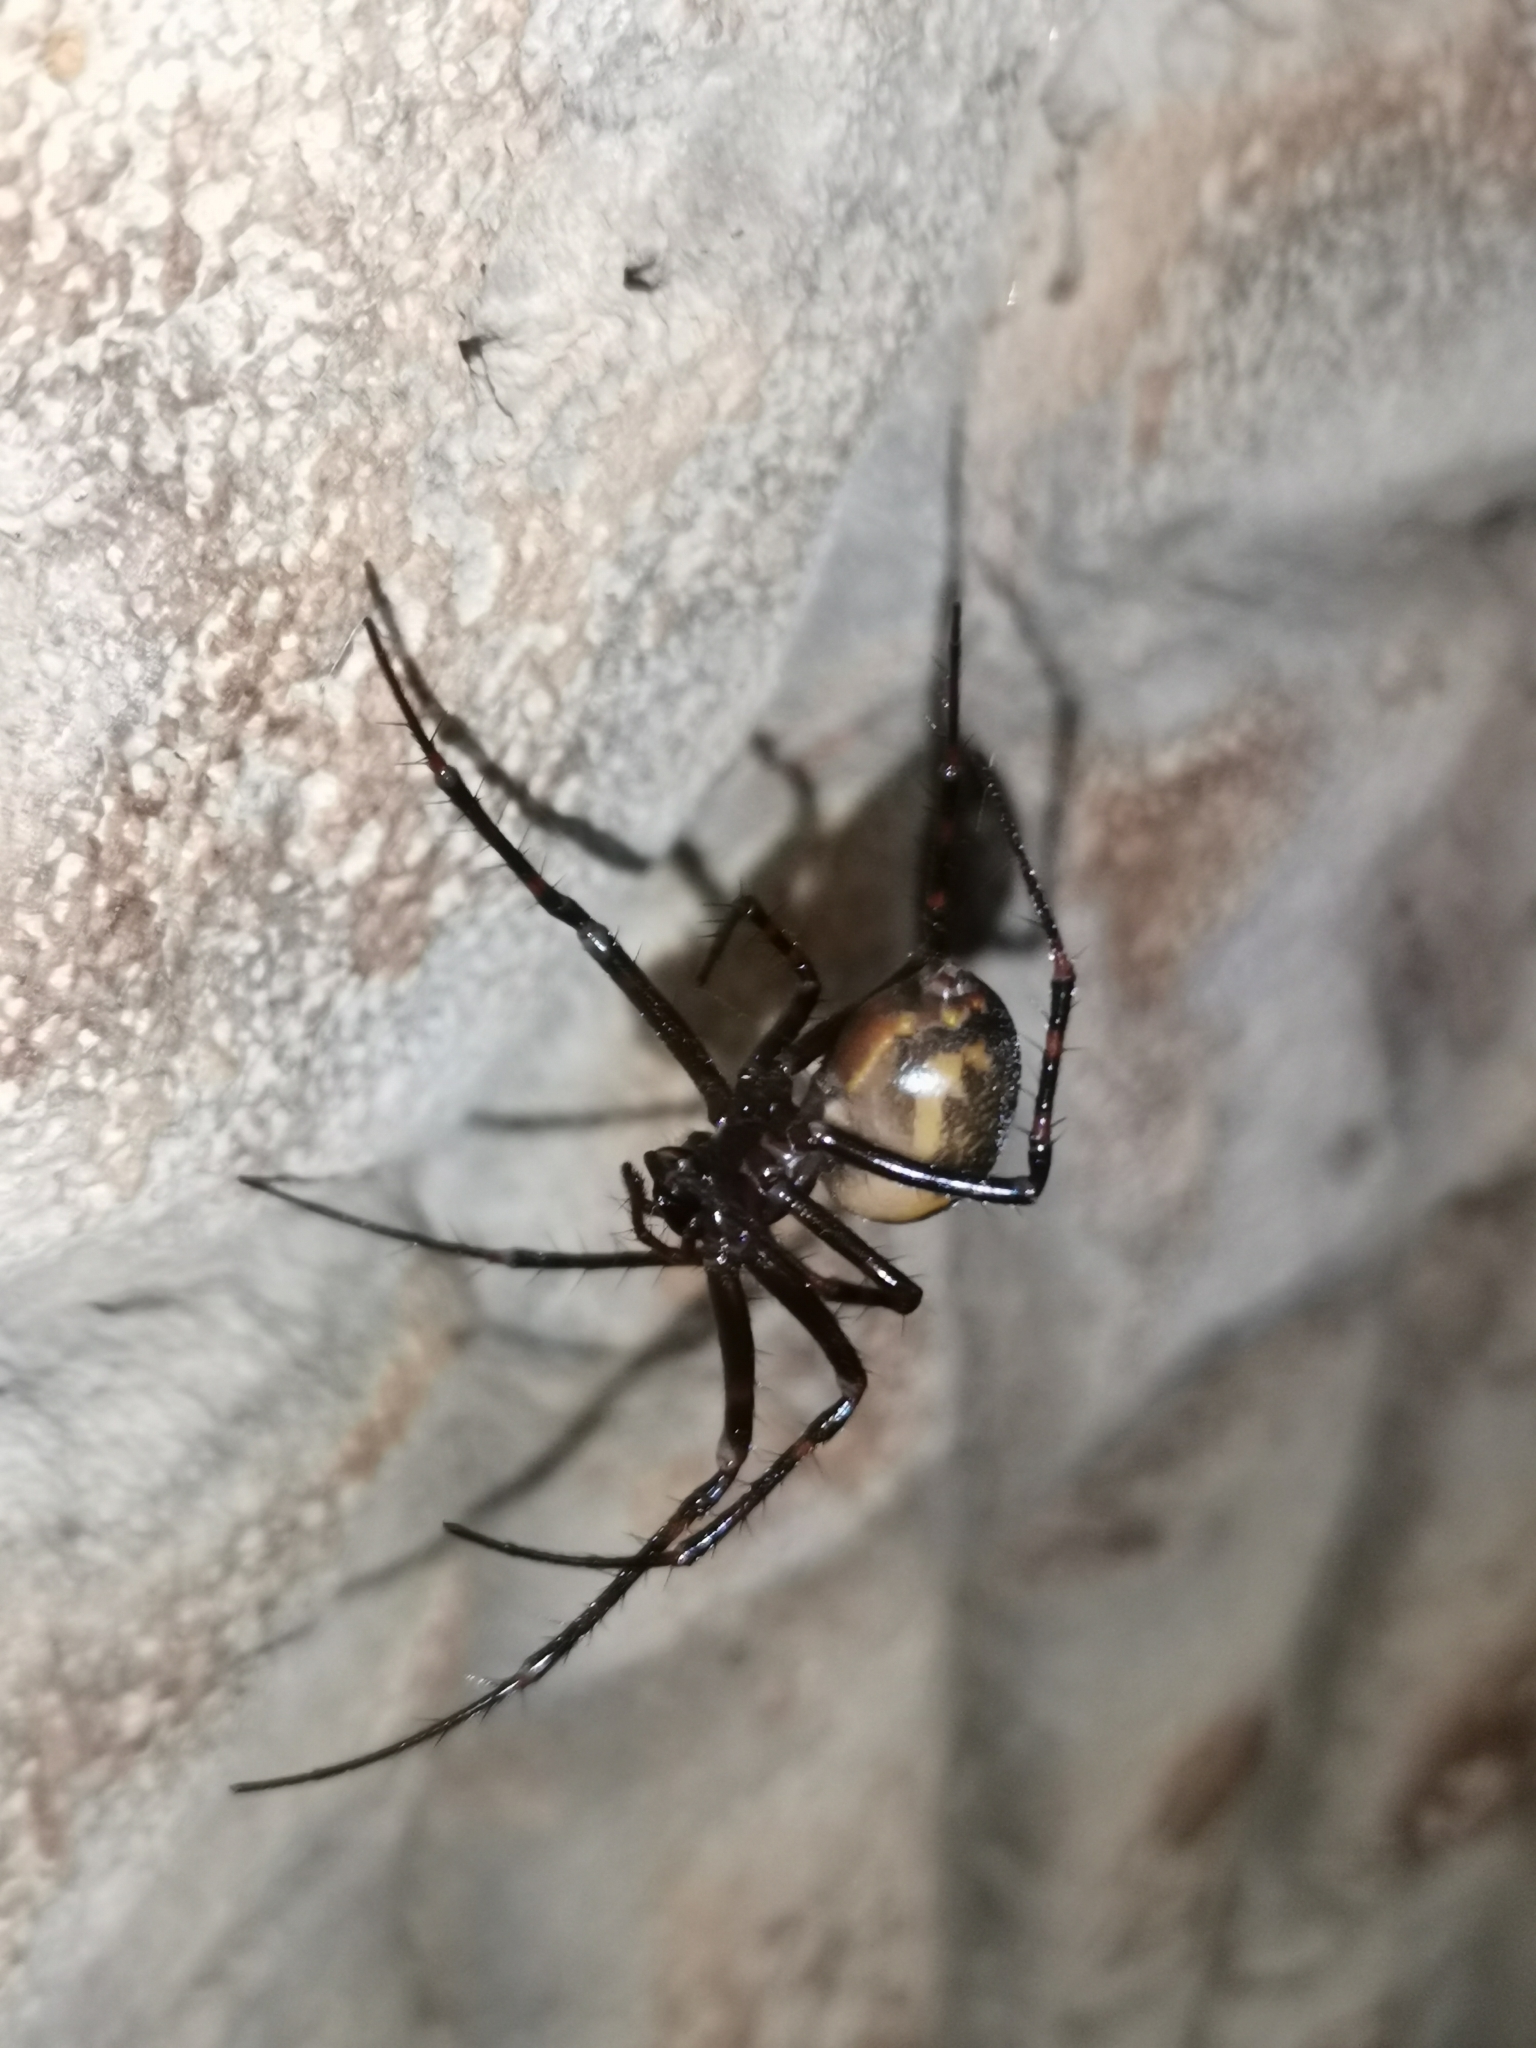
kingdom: Animalia
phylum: Arthropoda
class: Arachnida
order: Araneae
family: Tetragnathidae
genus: Meta
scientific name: Meta menardi
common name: Cave spider
